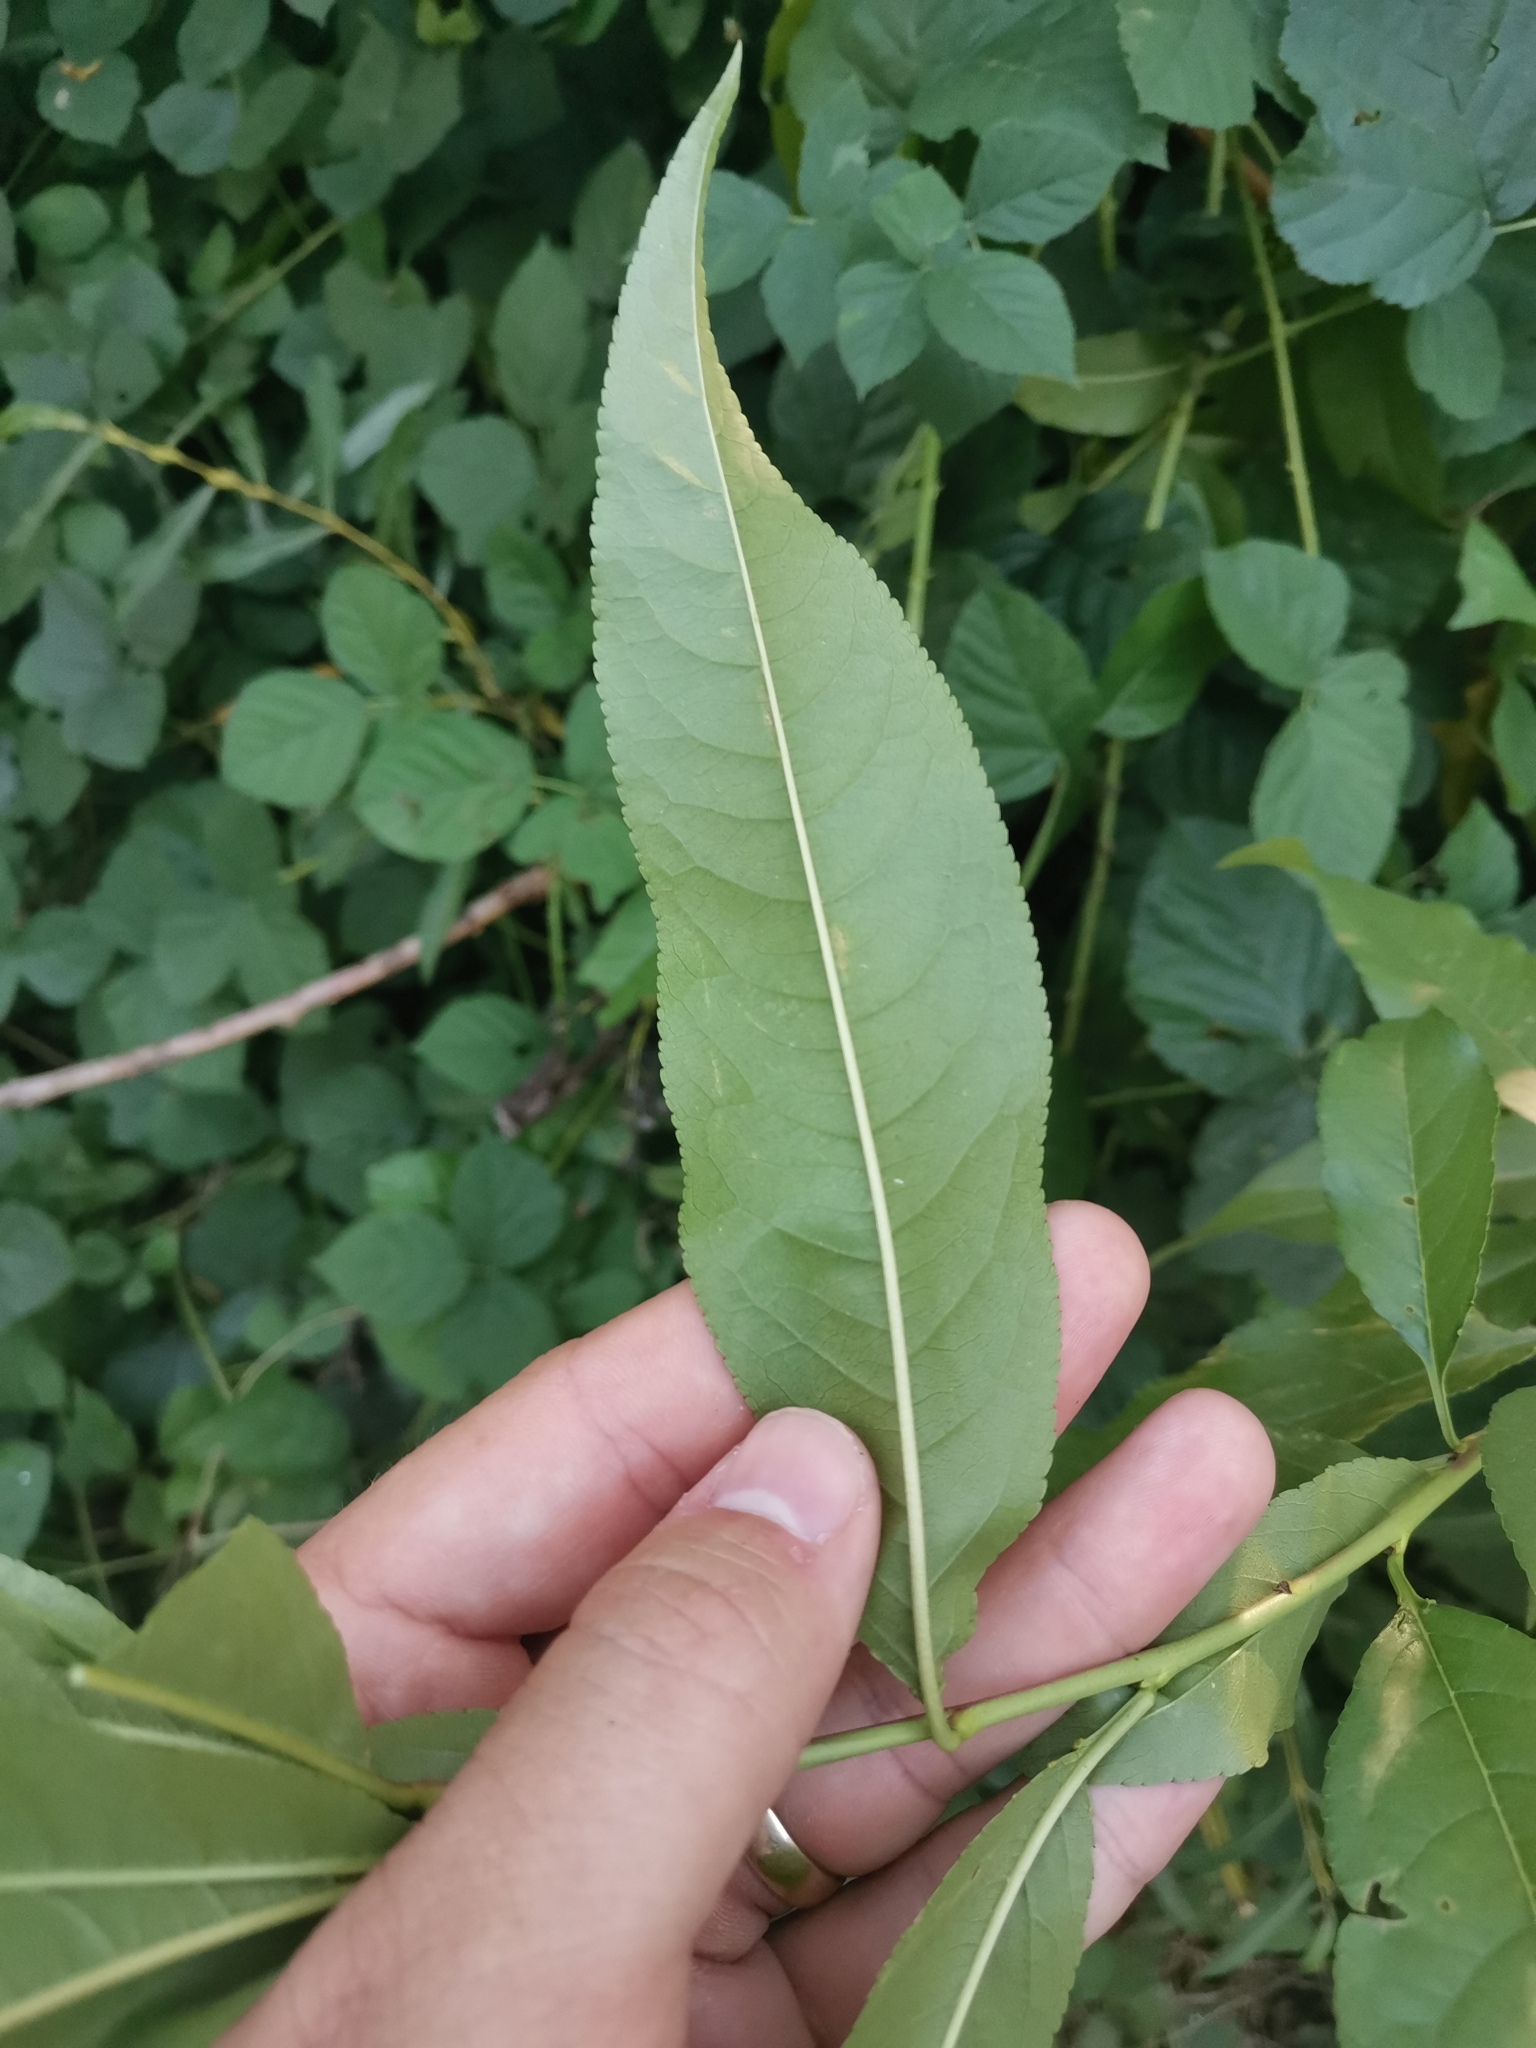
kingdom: Plantae
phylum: Tracheophyta
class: Magnoliopsida
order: Malpighiales
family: Salicaceae
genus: Salix
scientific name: Salix pentandra
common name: Bay willow
